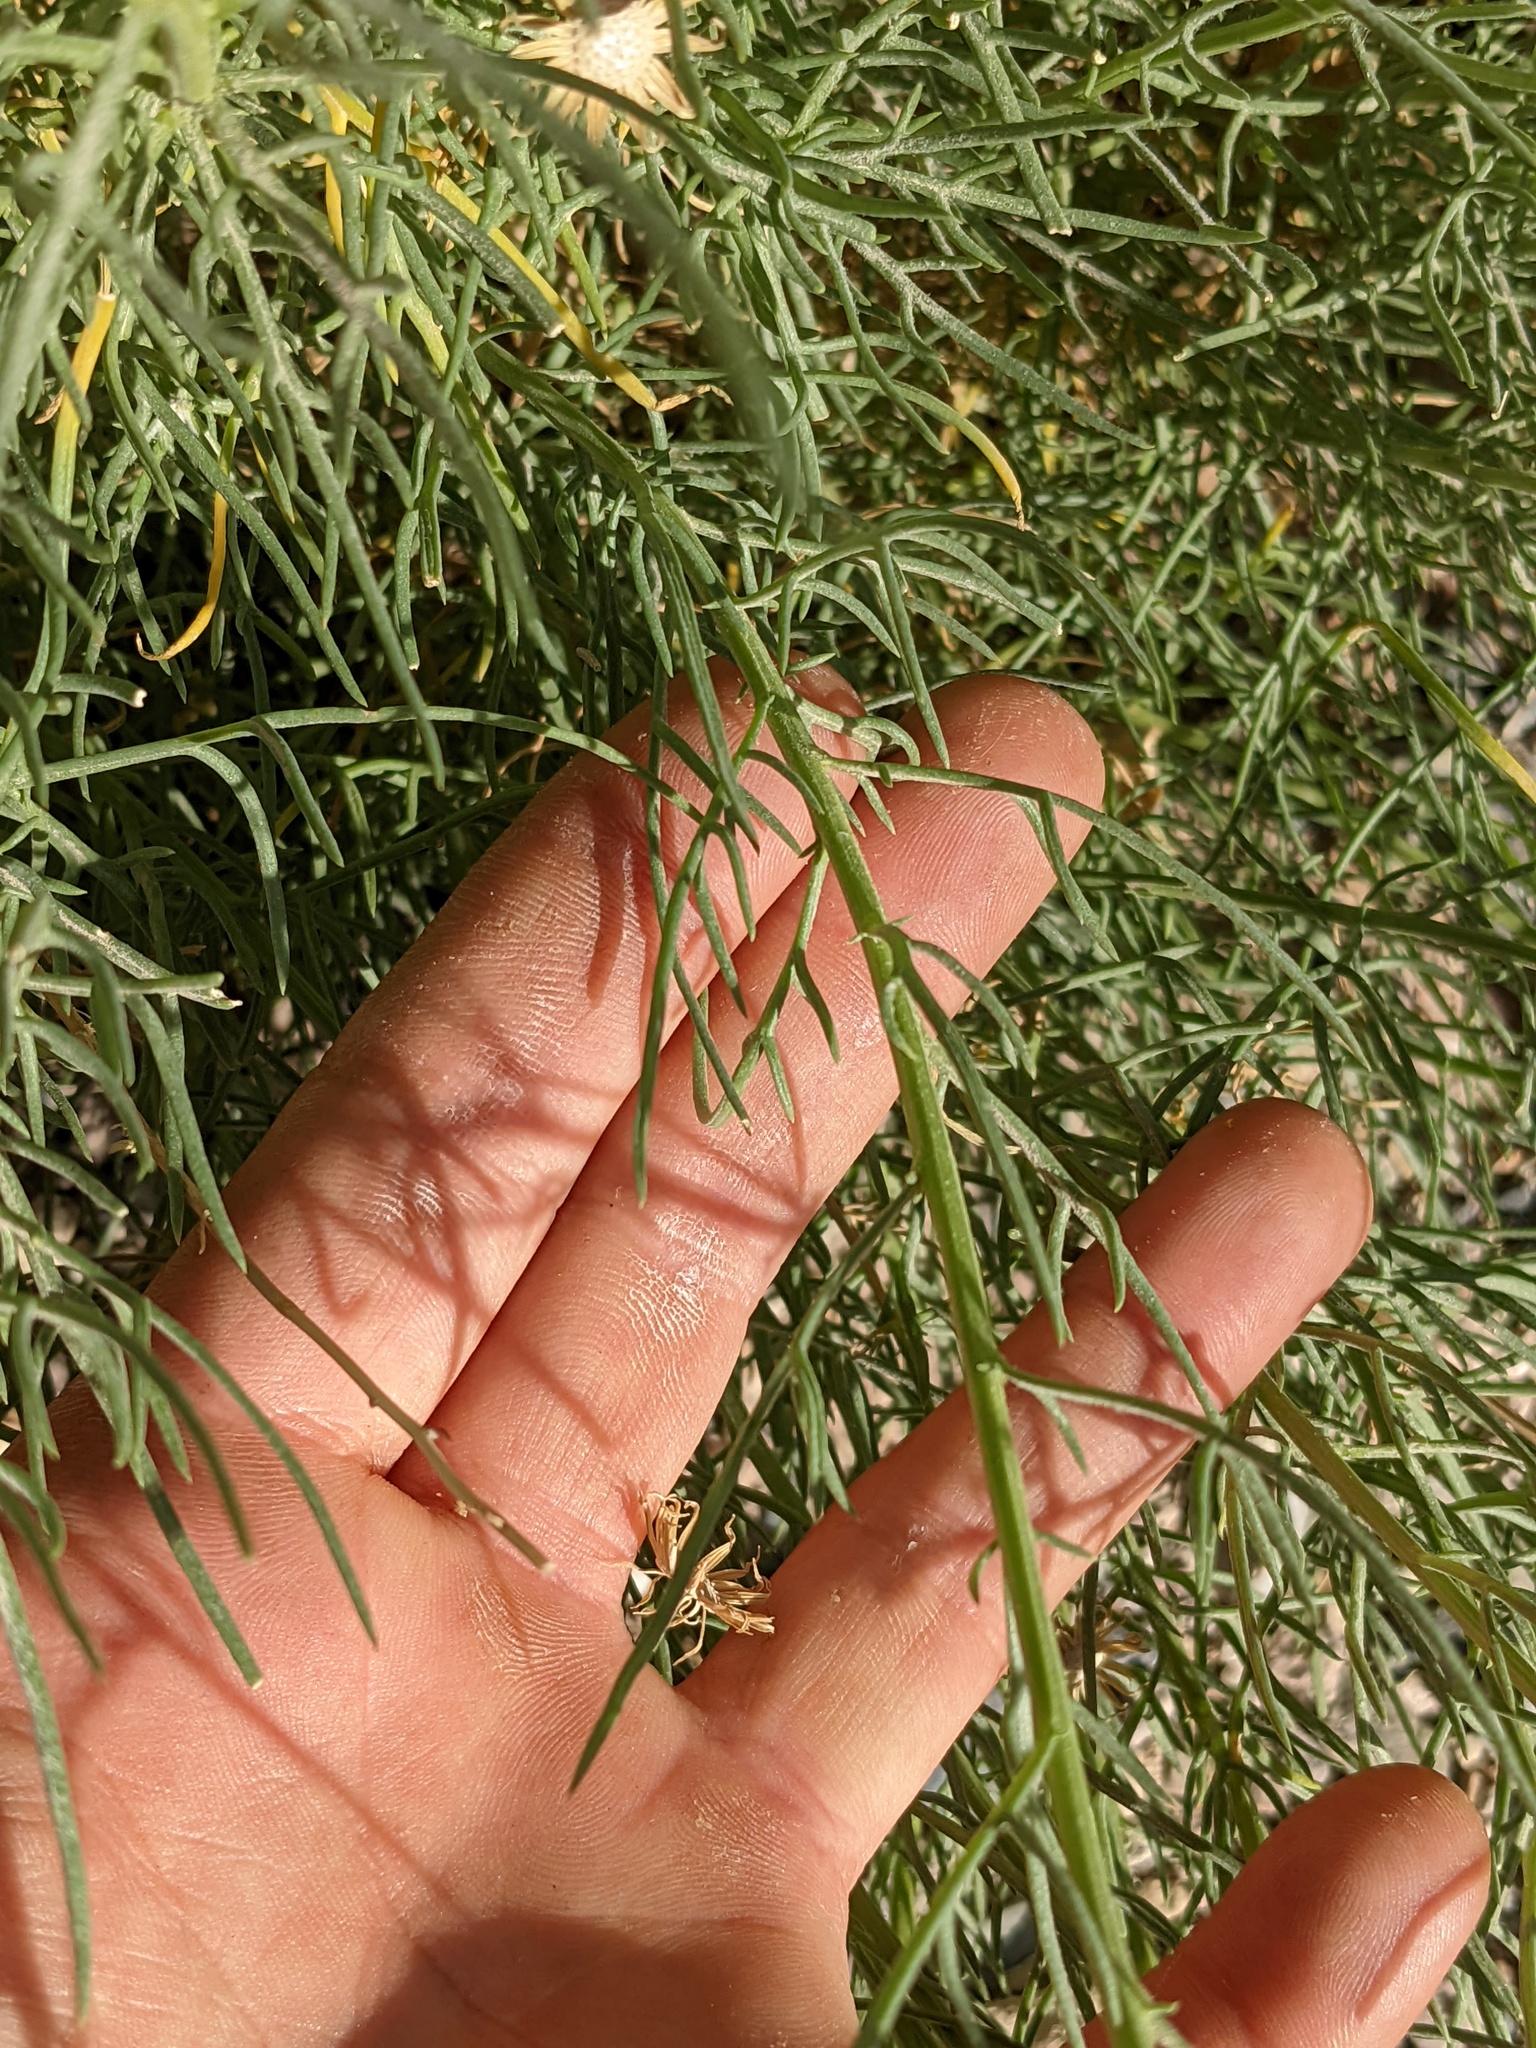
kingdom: Plantae
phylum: Tracheophyta
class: Magnoliopsida
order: Asterales
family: Asteraceae
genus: Senecio
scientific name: Senecio flaccidus
